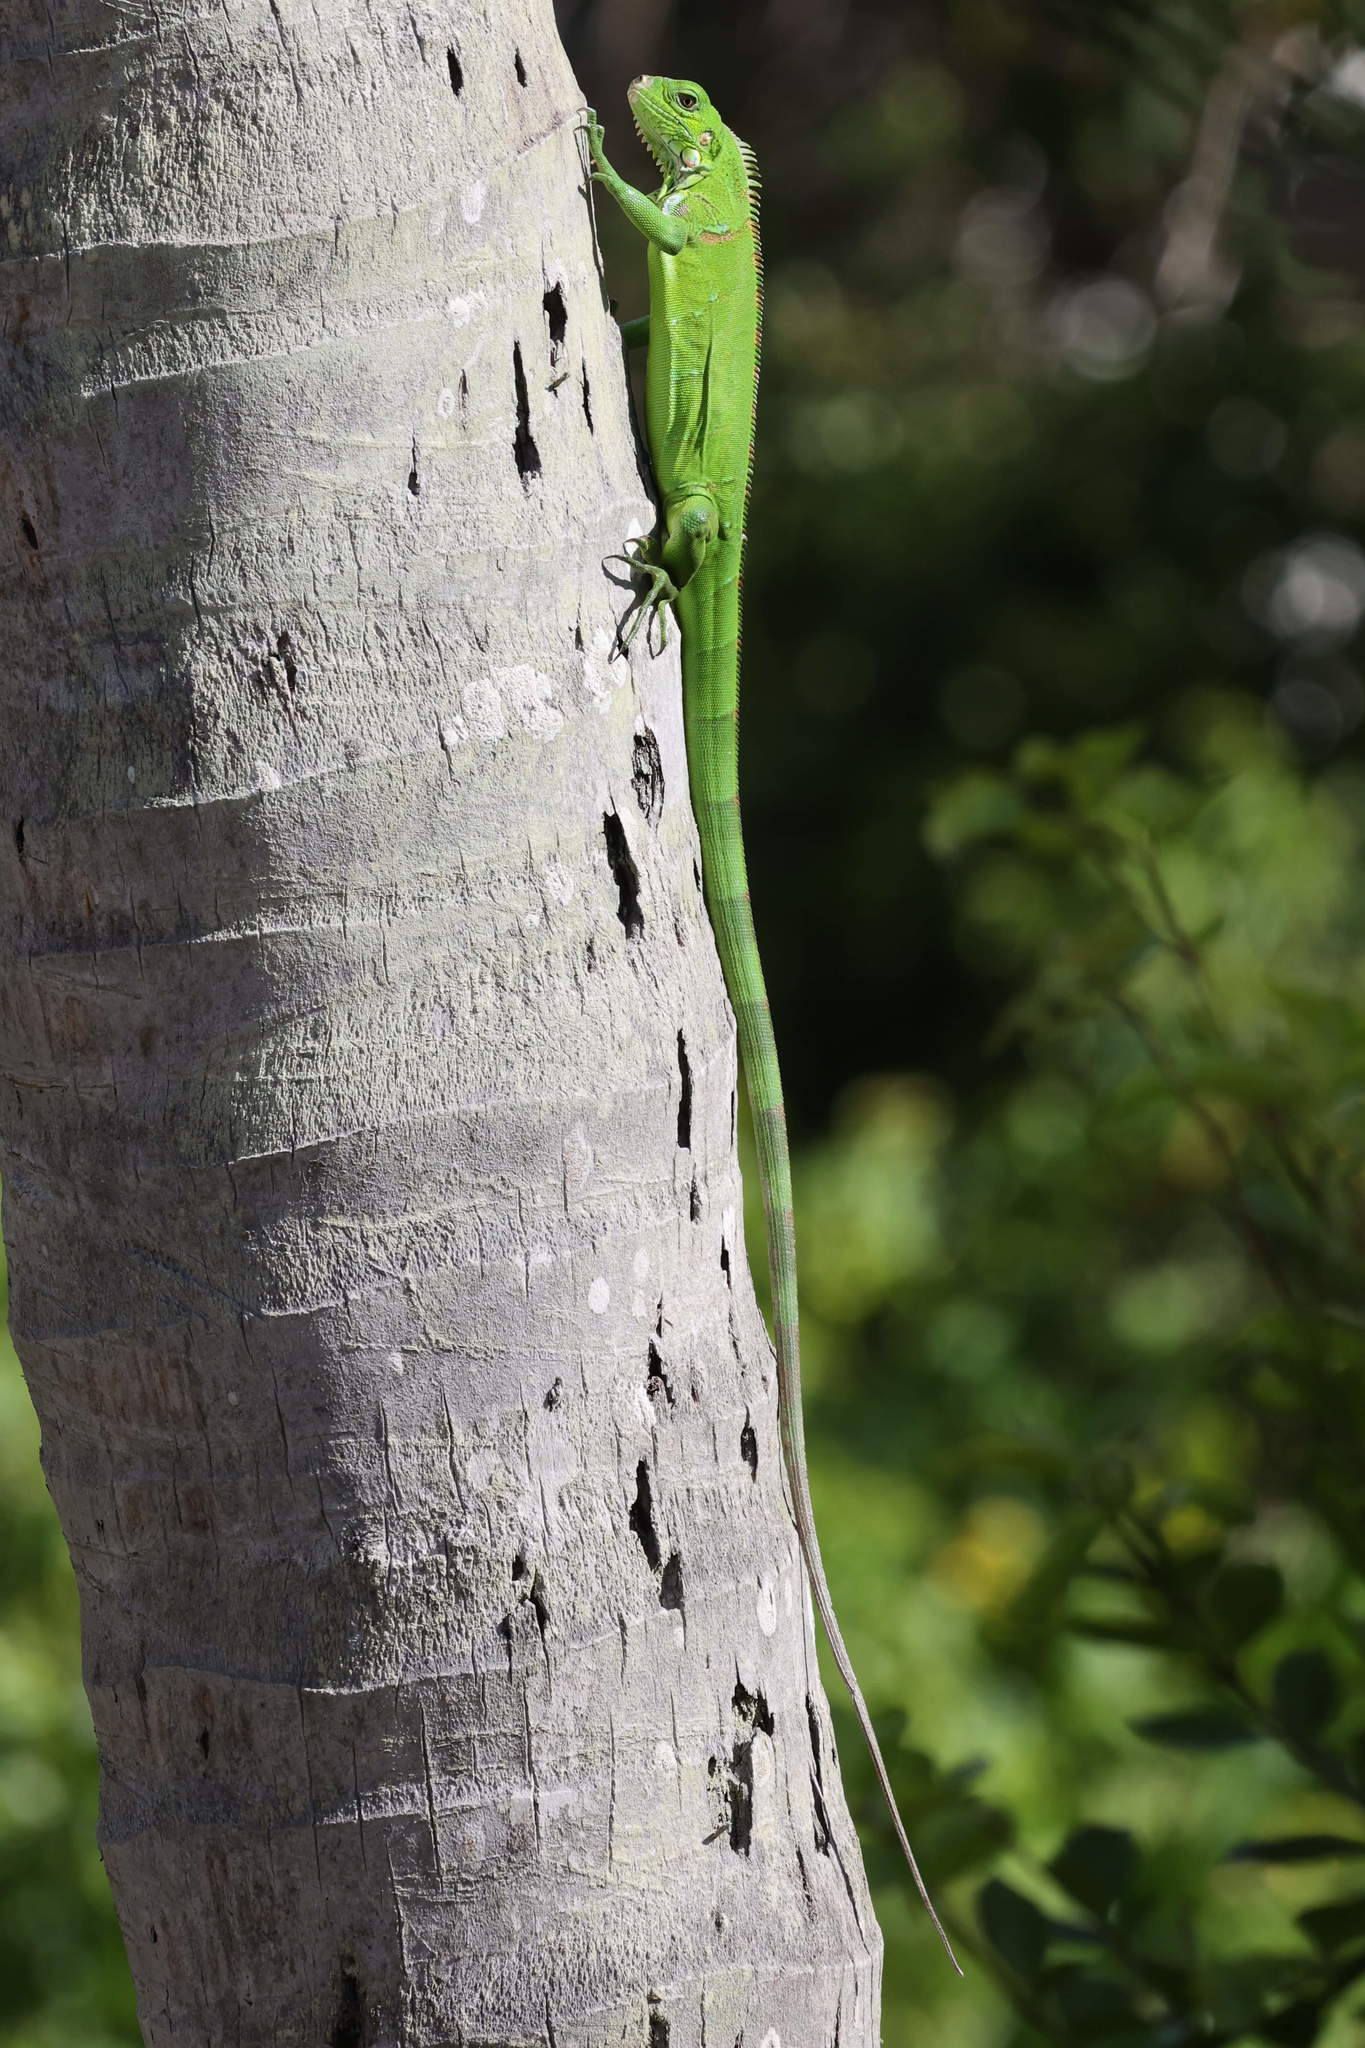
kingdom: Animalia
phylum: Chordata
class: Squamata
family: Iguanidae
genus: Iguana
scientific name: Iguana iguana
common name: Green iguana
